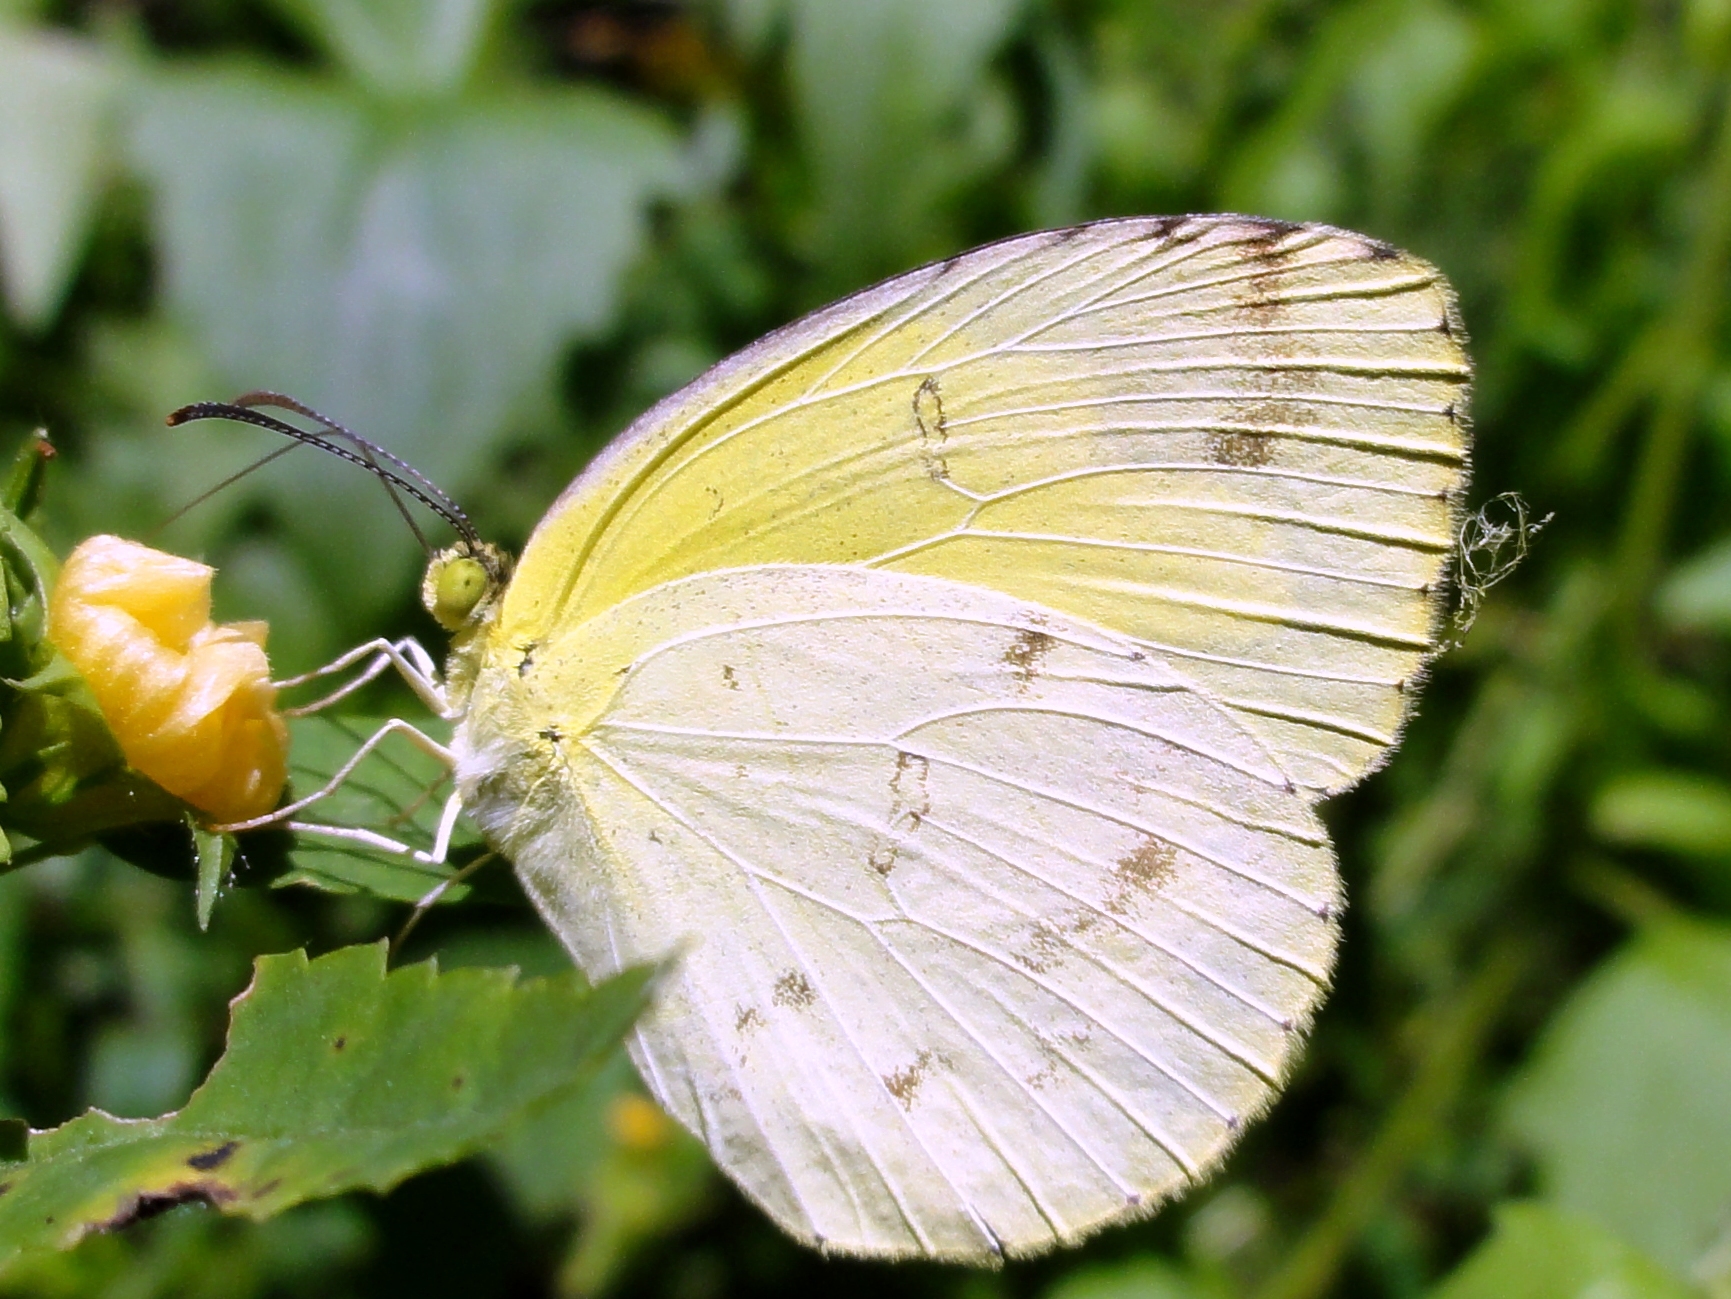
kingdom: Animalia
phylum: Arthropoda
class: Insecta
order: Lepidoptera
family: Pieridae
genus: Eurema
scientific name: Eurema andersoni
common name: One-spot yellow grass
